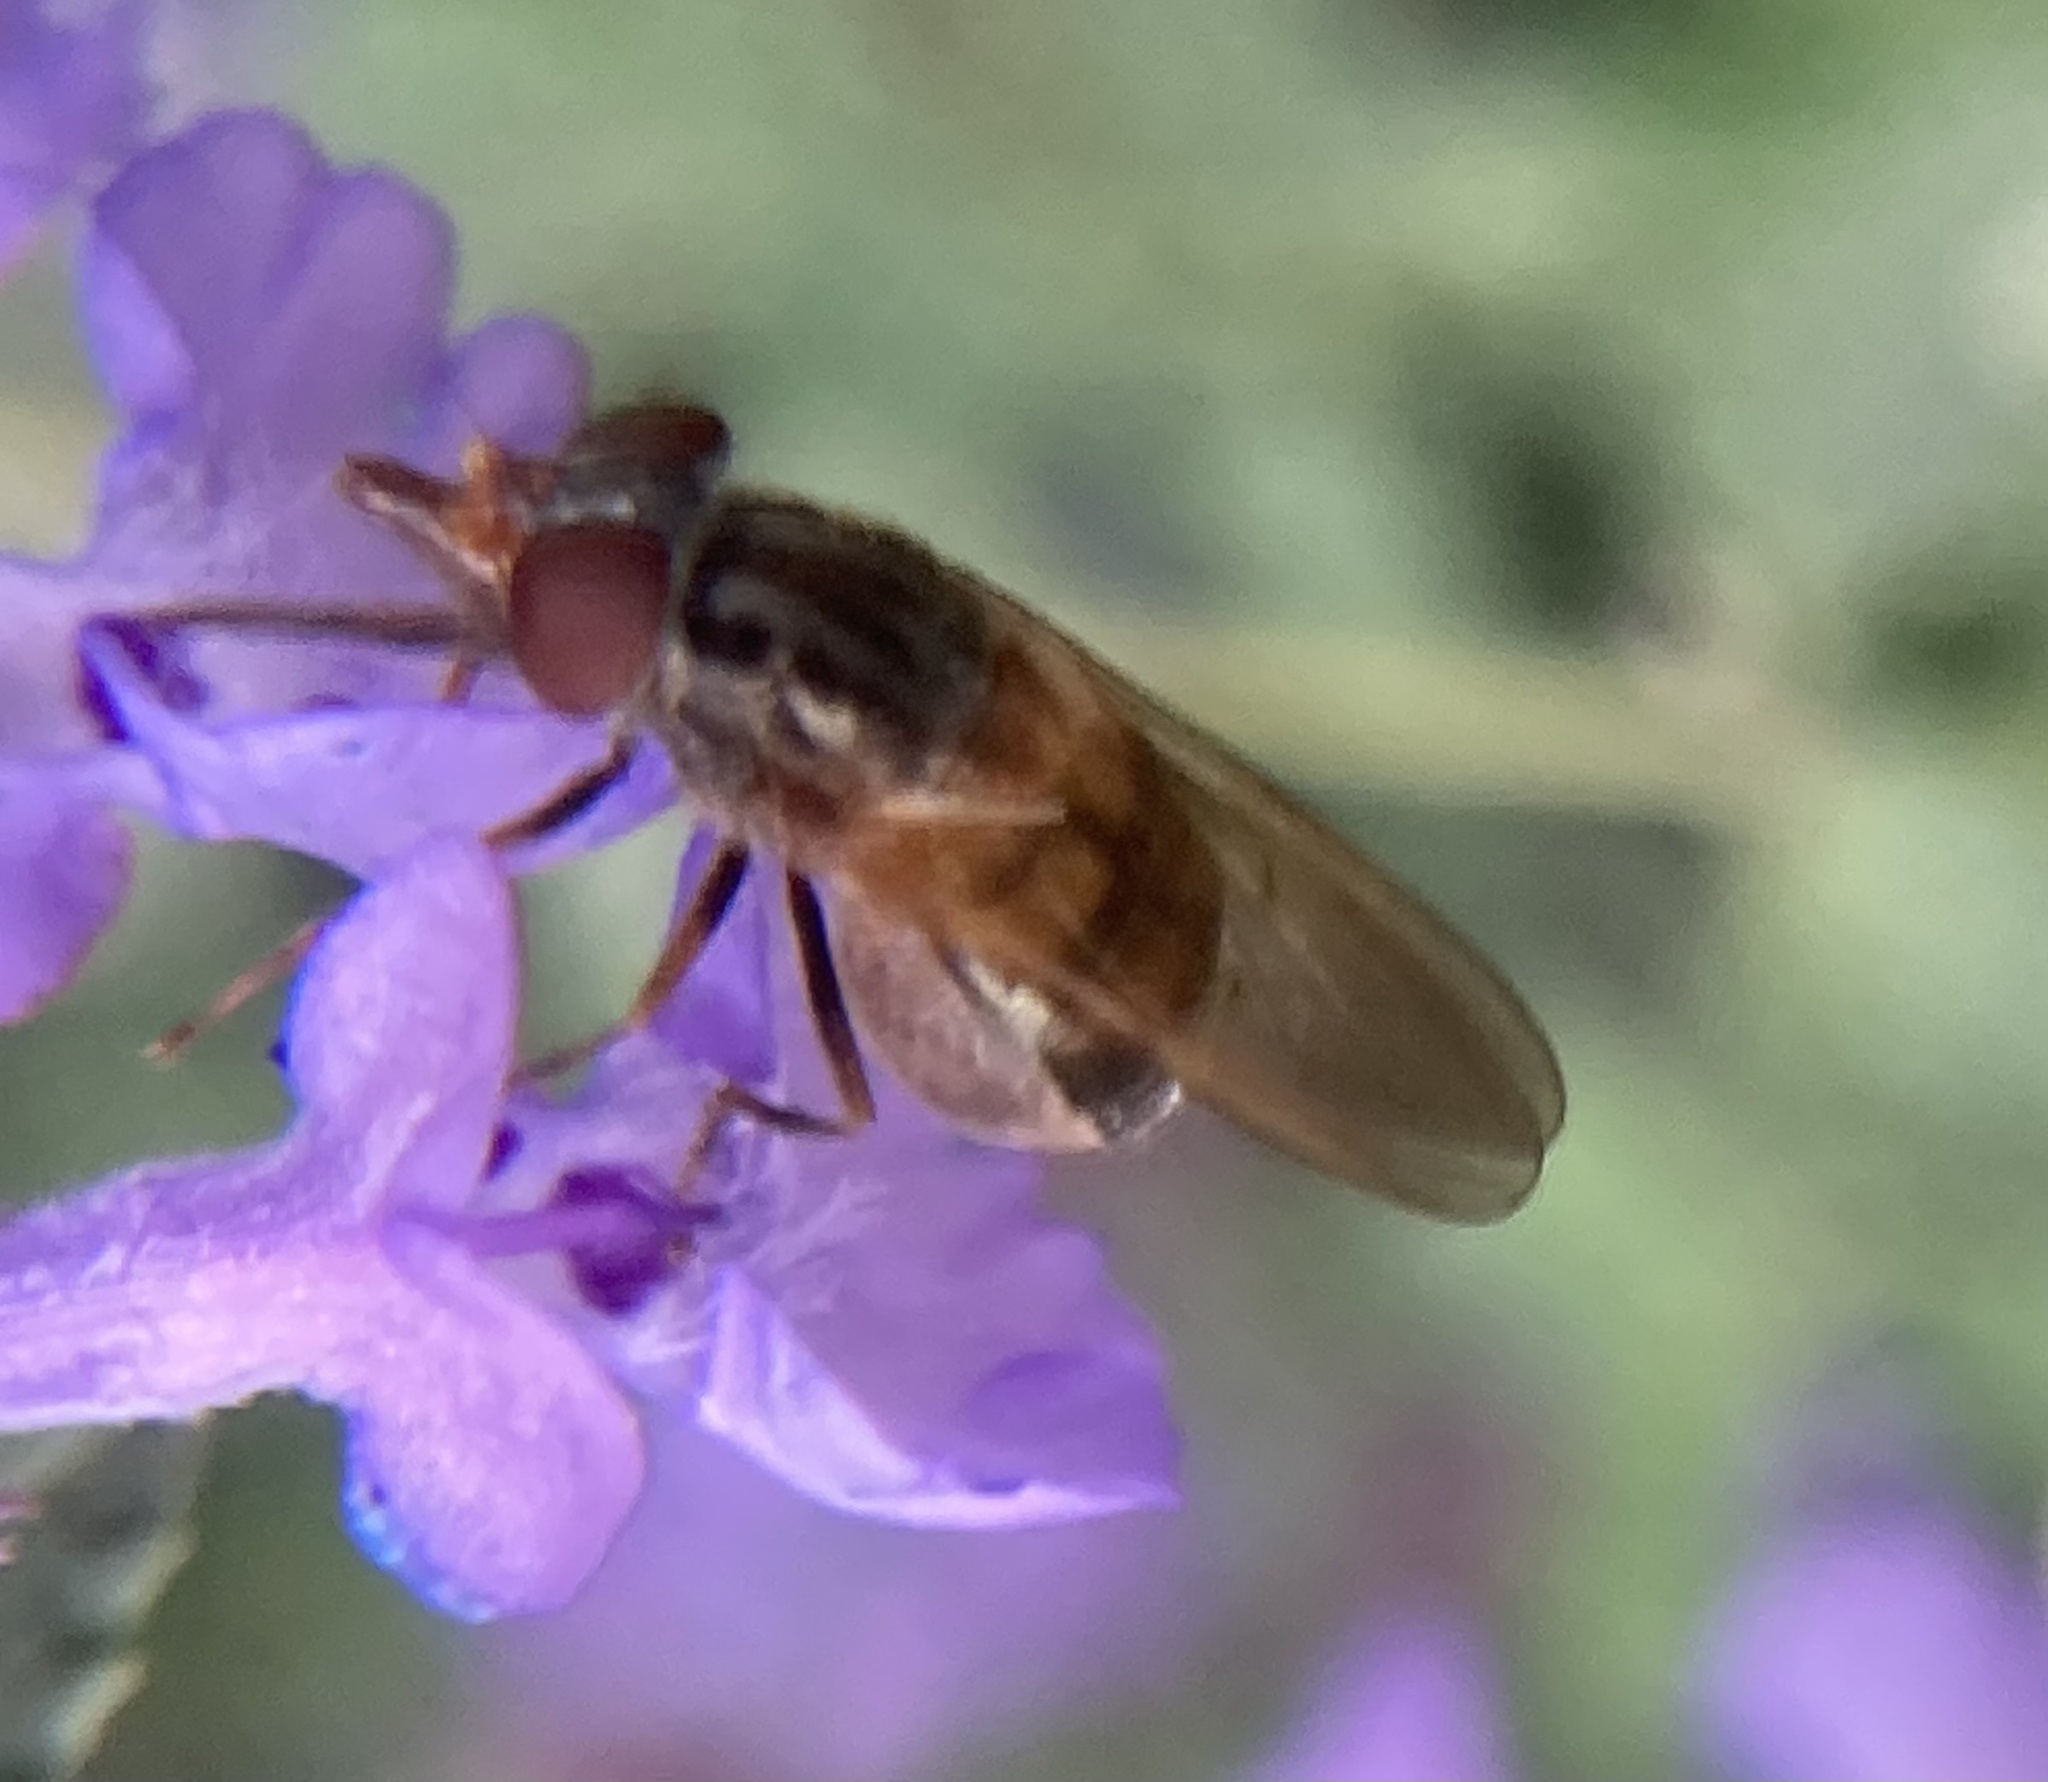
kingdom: Animalia
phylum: Arthropoda
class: Insecta
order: Diptera
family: Syrphidae
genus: Rhingia
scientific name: Rhingia nasica
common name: American snout fly
